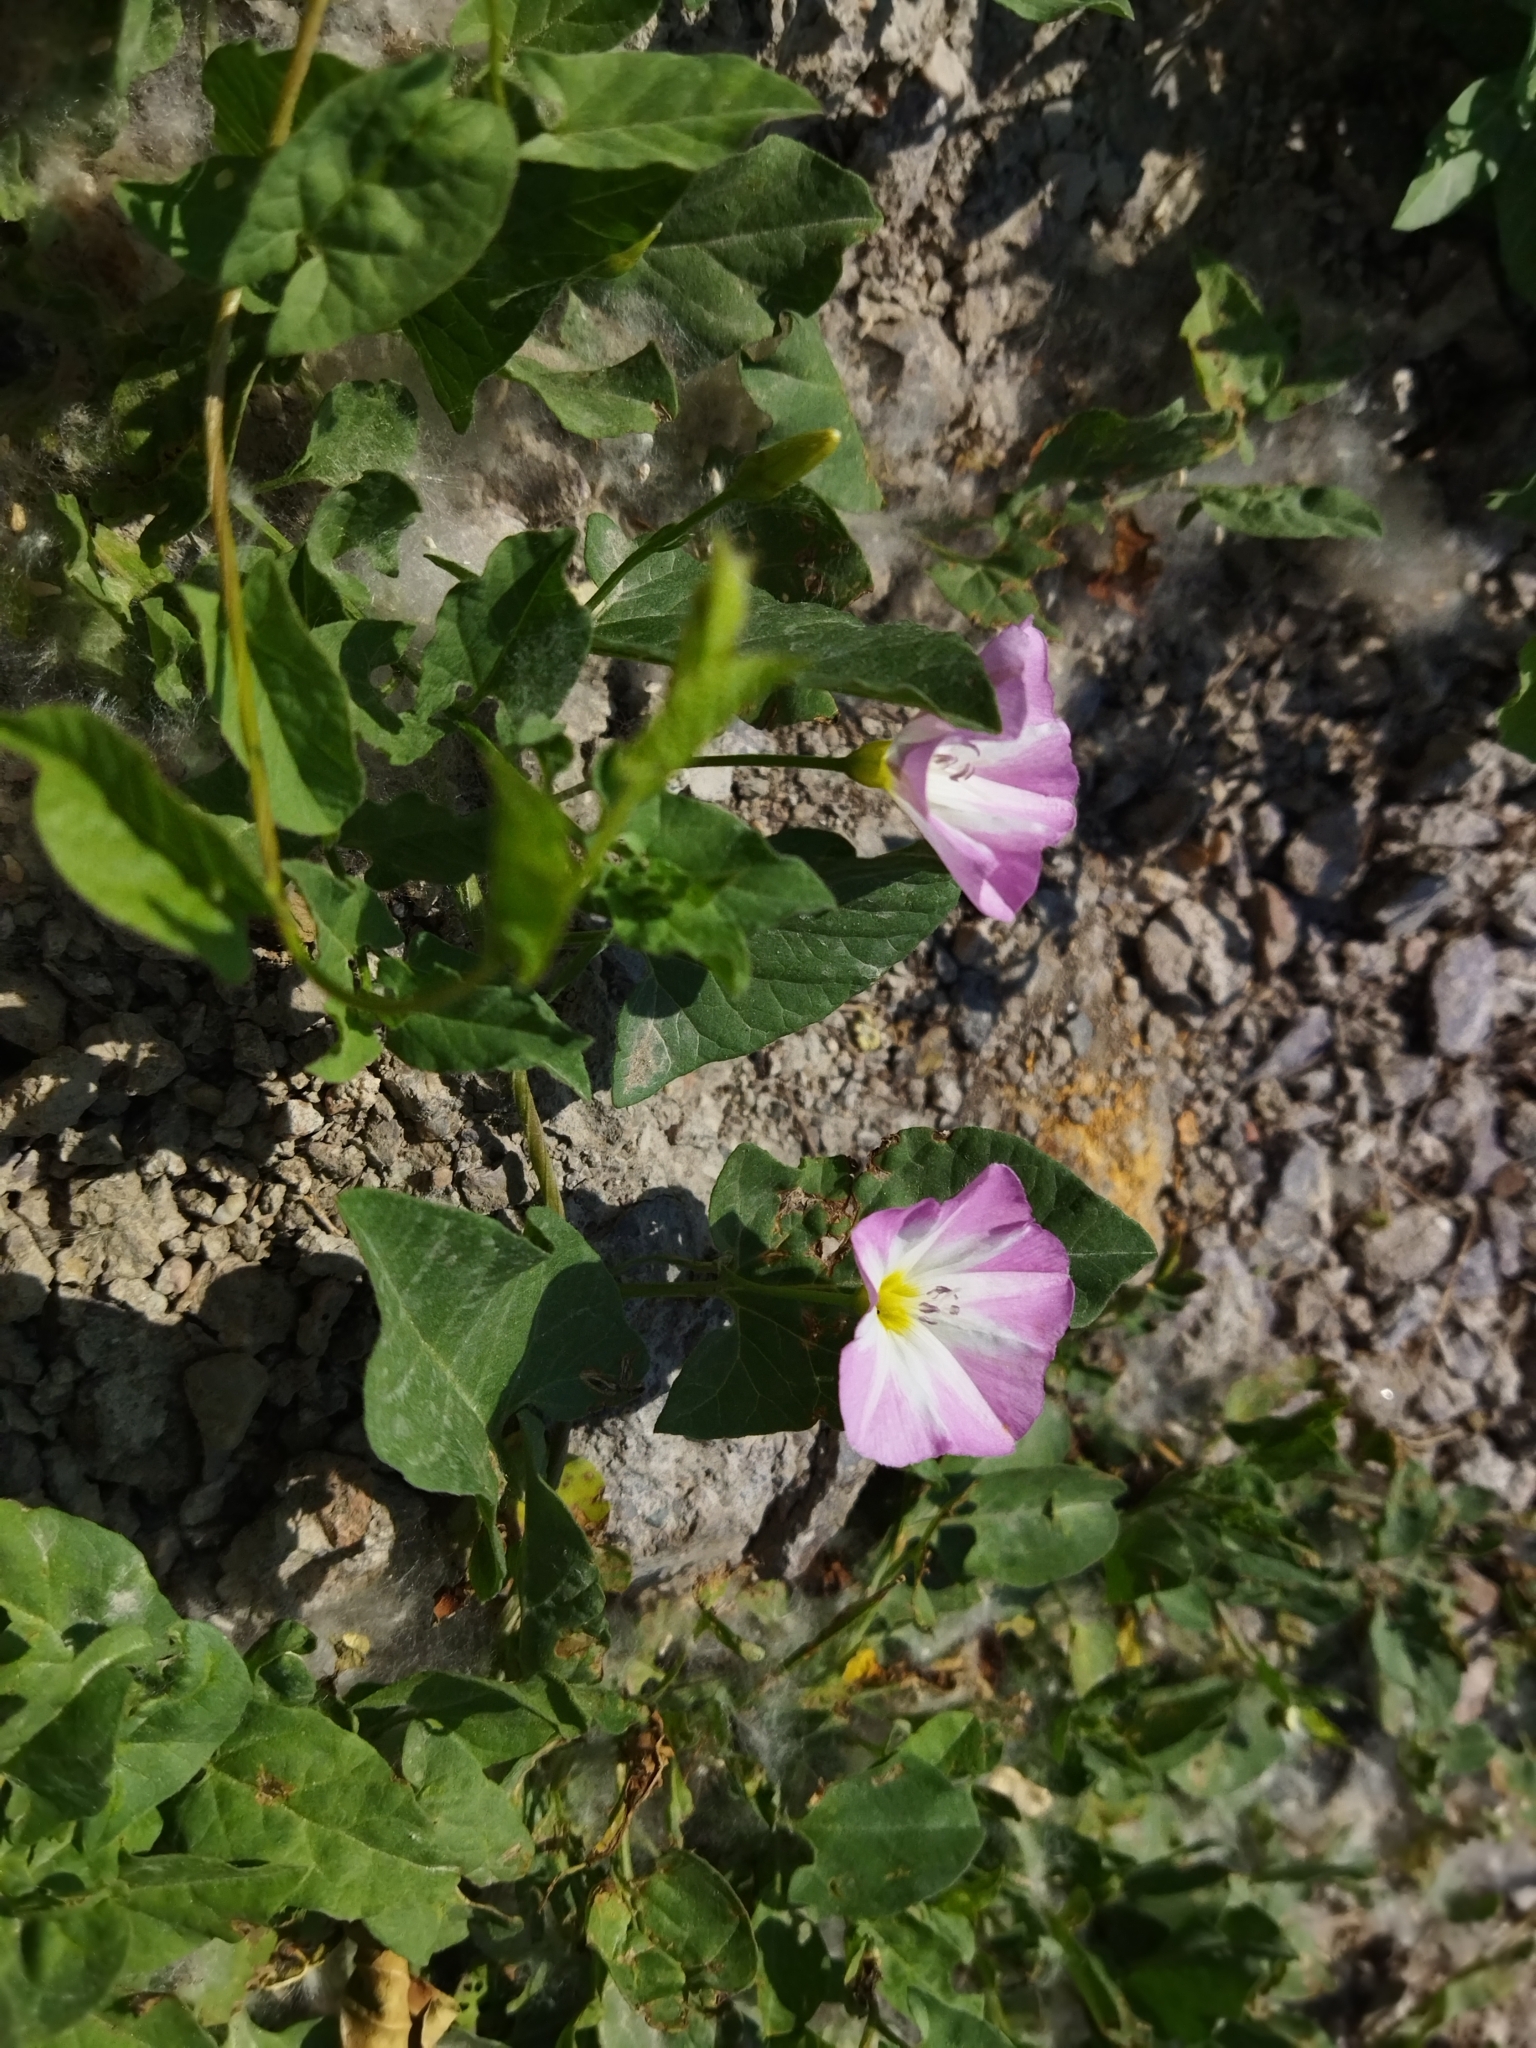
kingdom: Plantae
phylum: Tracheophyta
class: Magnoliopsida
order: Solanales
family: Convolvulaceae
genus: Convolvulus
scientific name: Convolvulus arvensis
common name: Field bindweed
